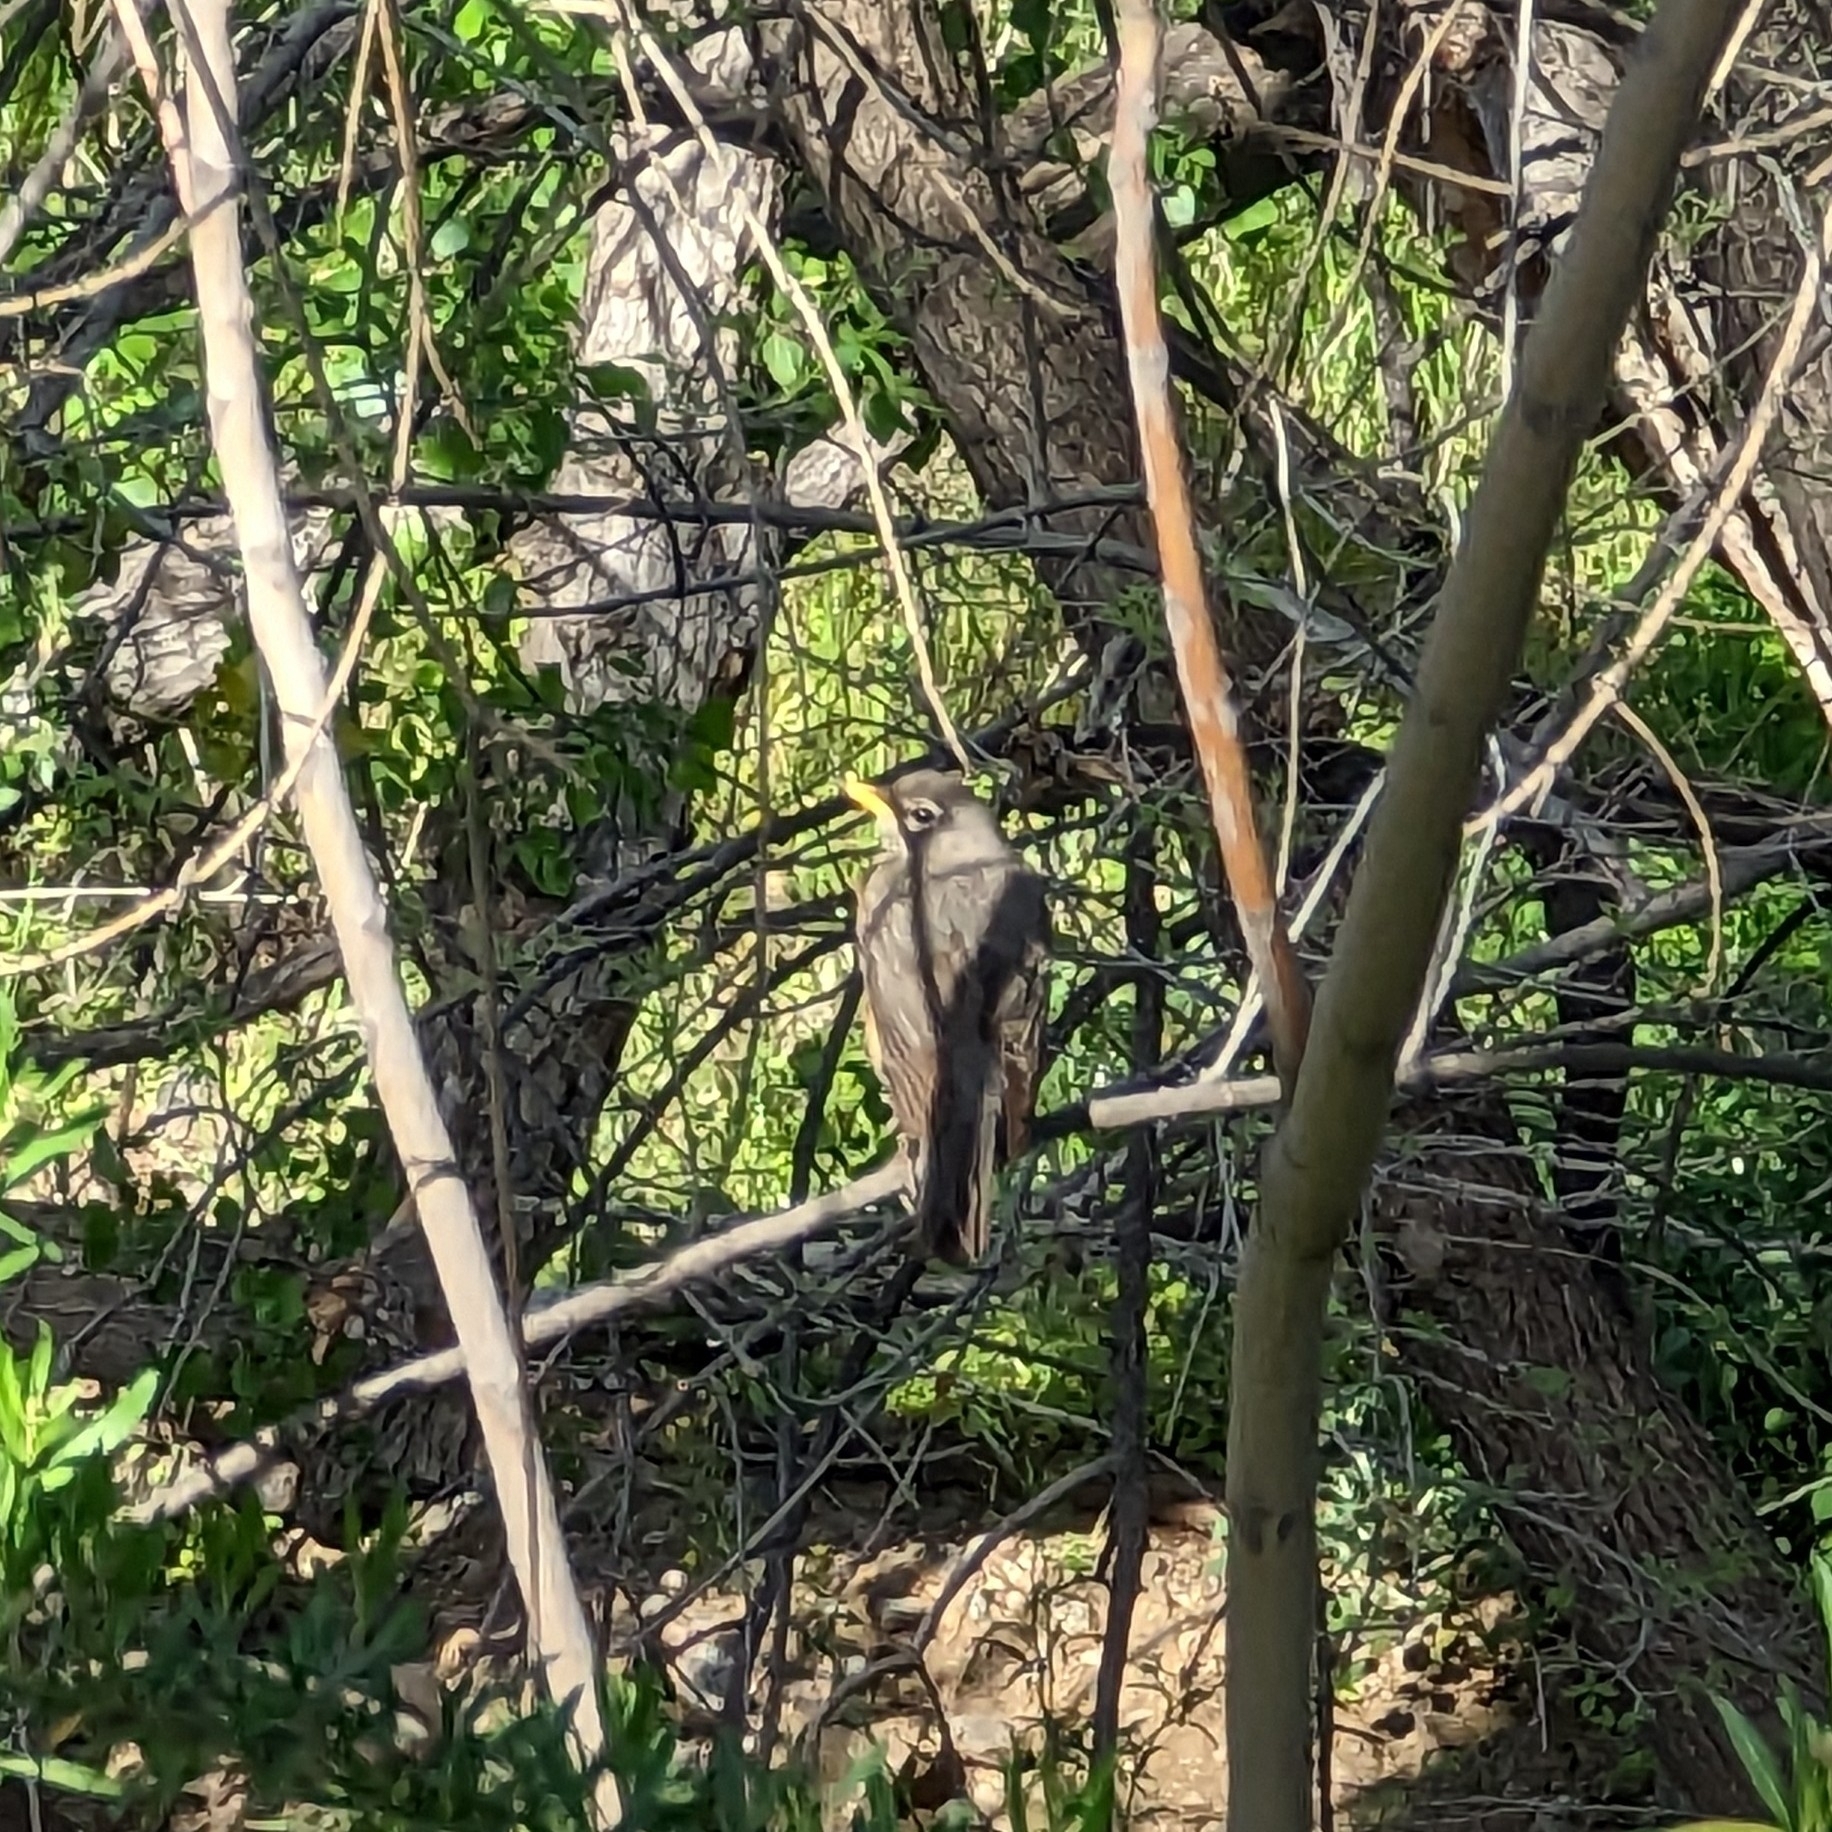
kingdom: Animalia
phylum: Chordata
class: Aves
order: Passeriformes
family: Turdidae
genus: Turdus
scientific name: Turdus migratorius
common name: American robin
